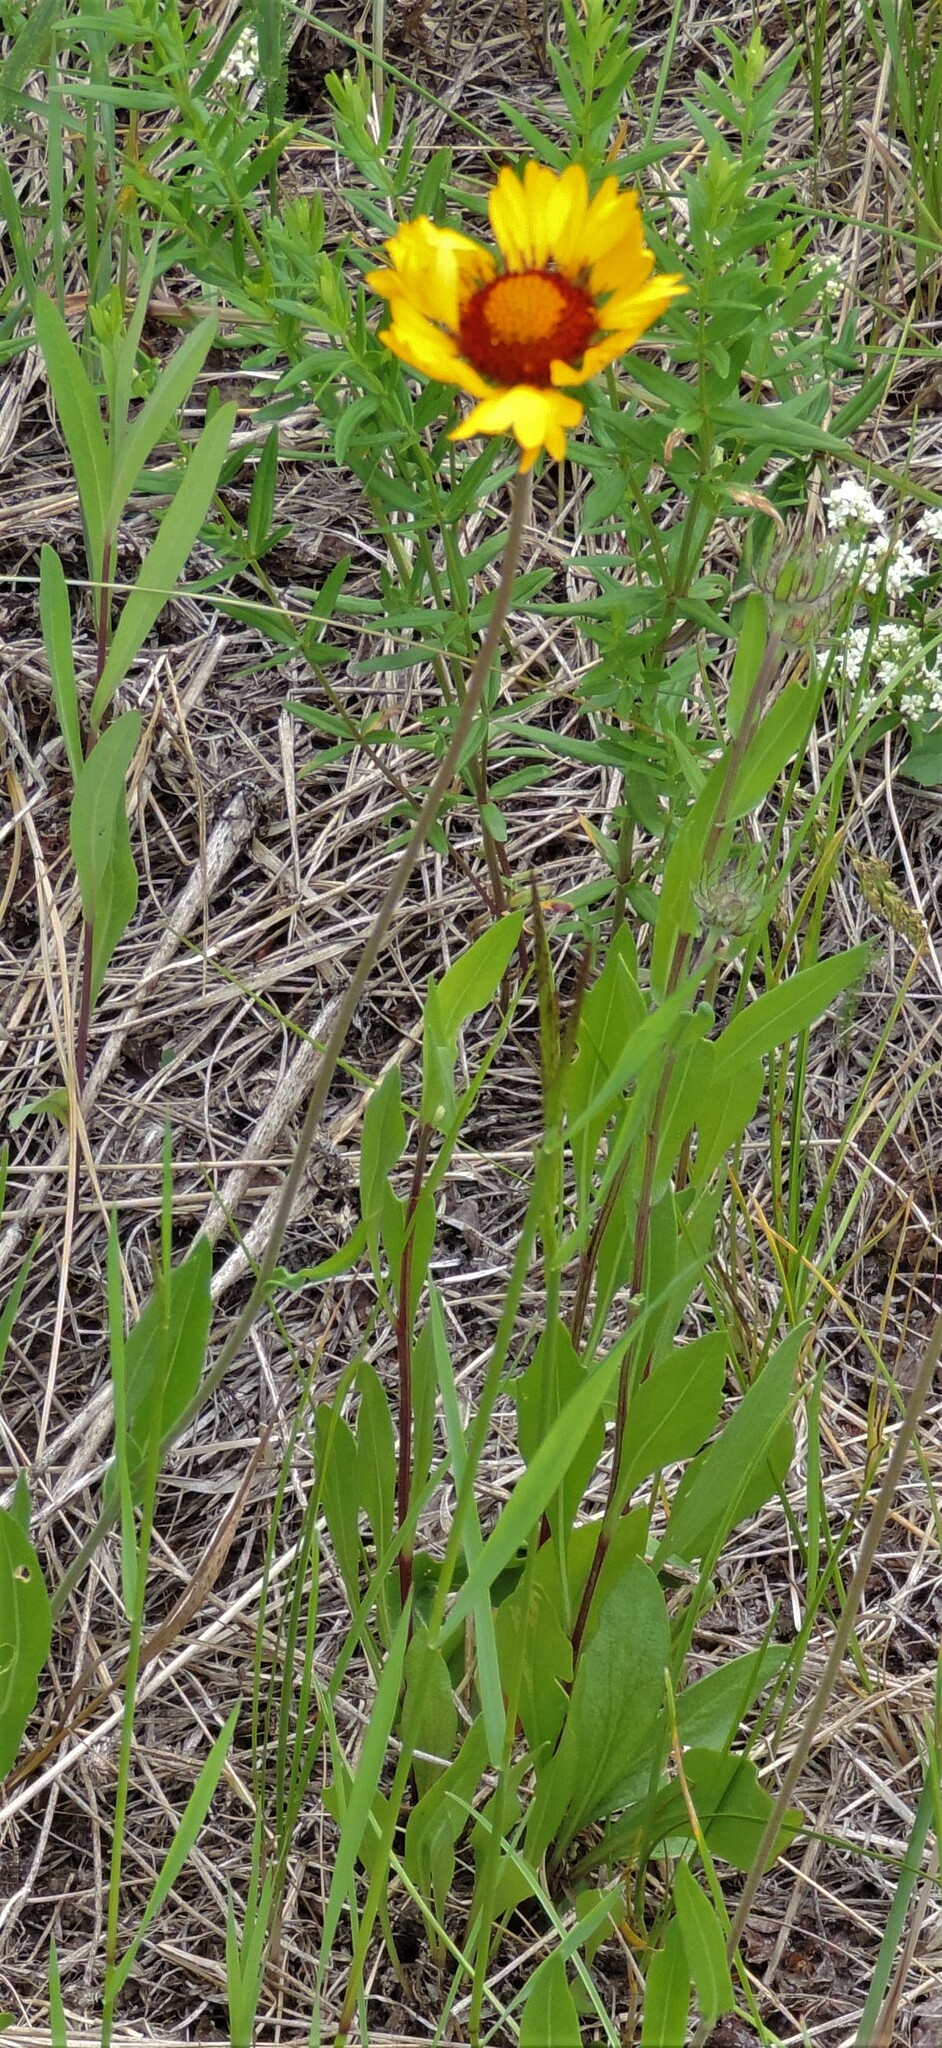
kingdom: Plantae
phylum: Tracheophyta
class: Magnoliopsida
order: Asterales
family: Asteraceae
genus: Gaillardia
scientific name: Gaillardia aristata
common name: Blanket-flower
